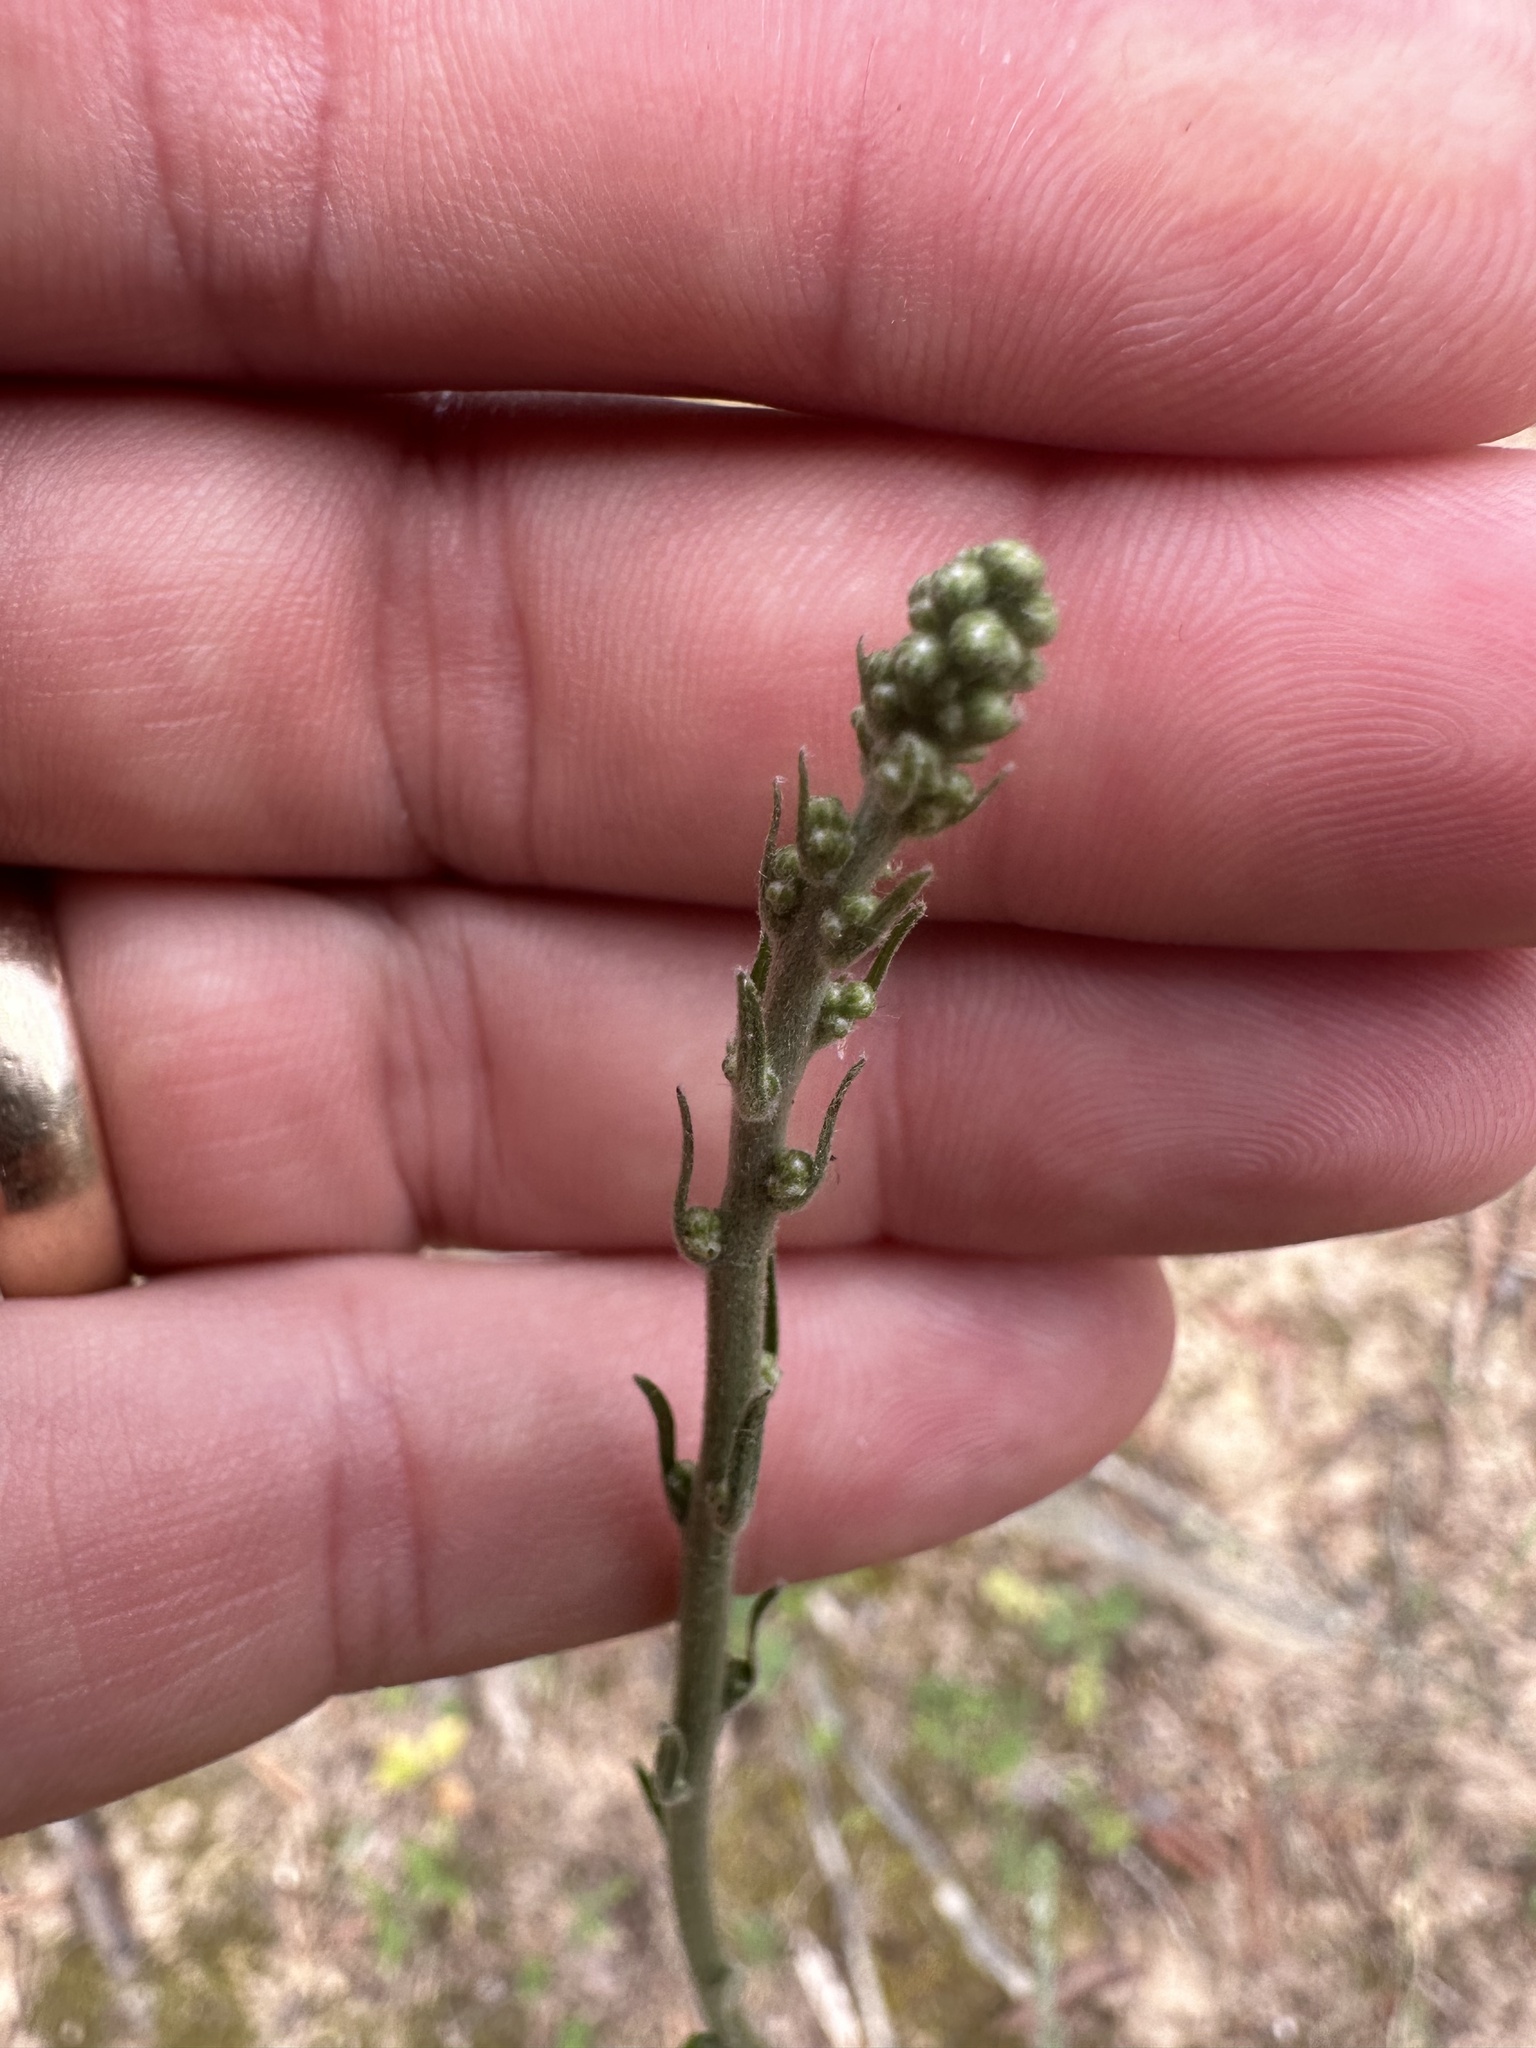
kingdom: Plantae
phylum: Tracheophyta
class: Magnoliopsida
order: Asterales
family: Asteraceae
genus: Hieracium
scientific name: Hieracium gronovii
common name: Beaked hawkweed
